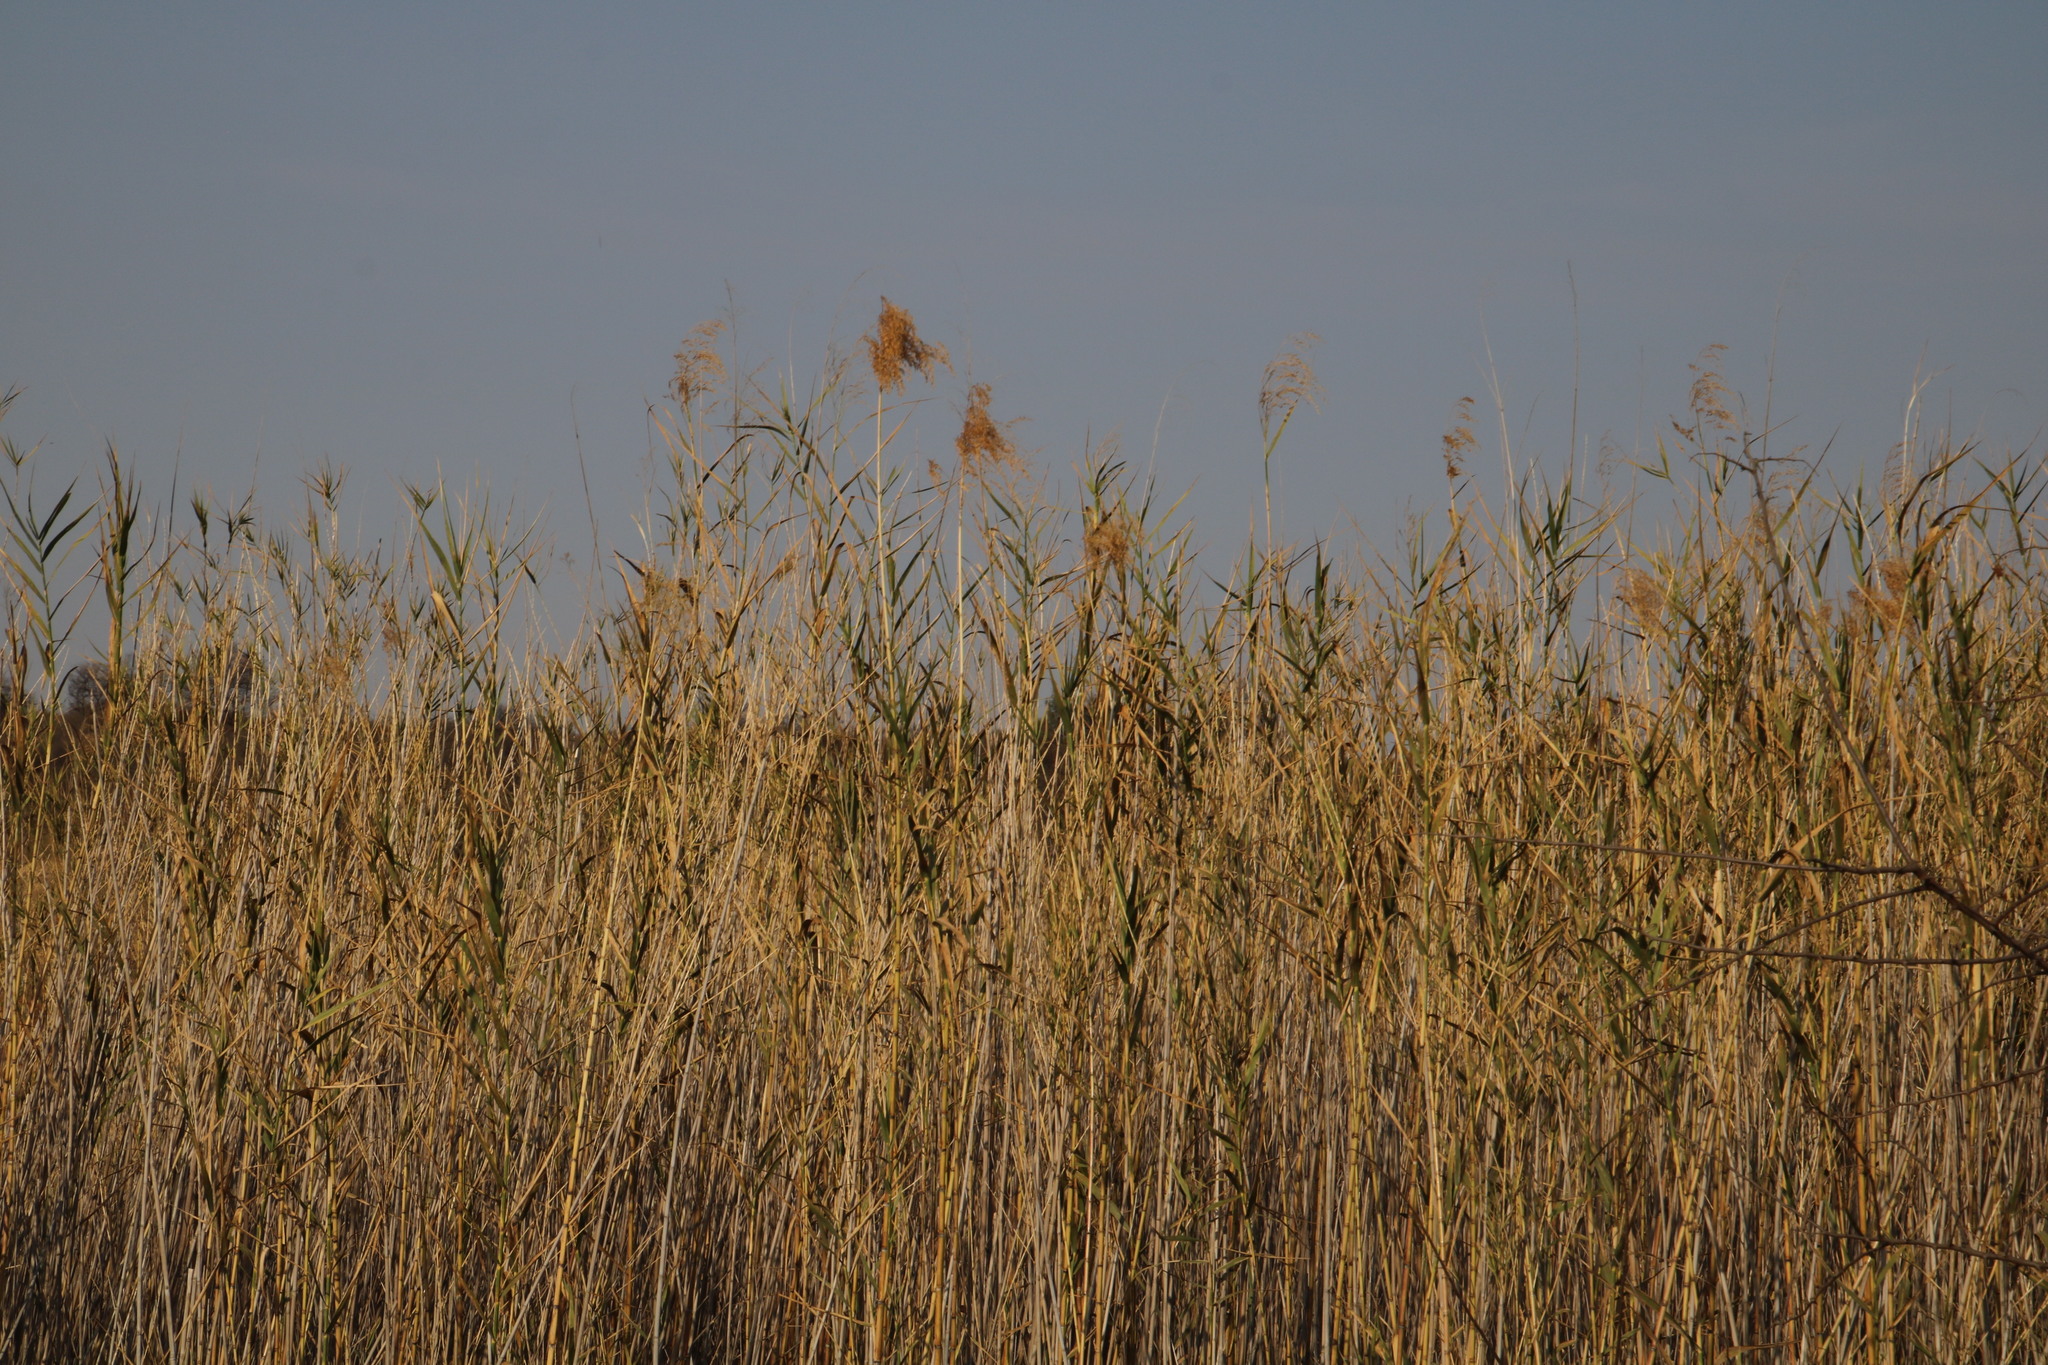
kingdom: Plantae
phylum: Tracheophyta
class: Liliopsida
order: Poales
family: Poaceae
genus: Phragmites
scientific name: Phragmites australis
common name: Common reed
